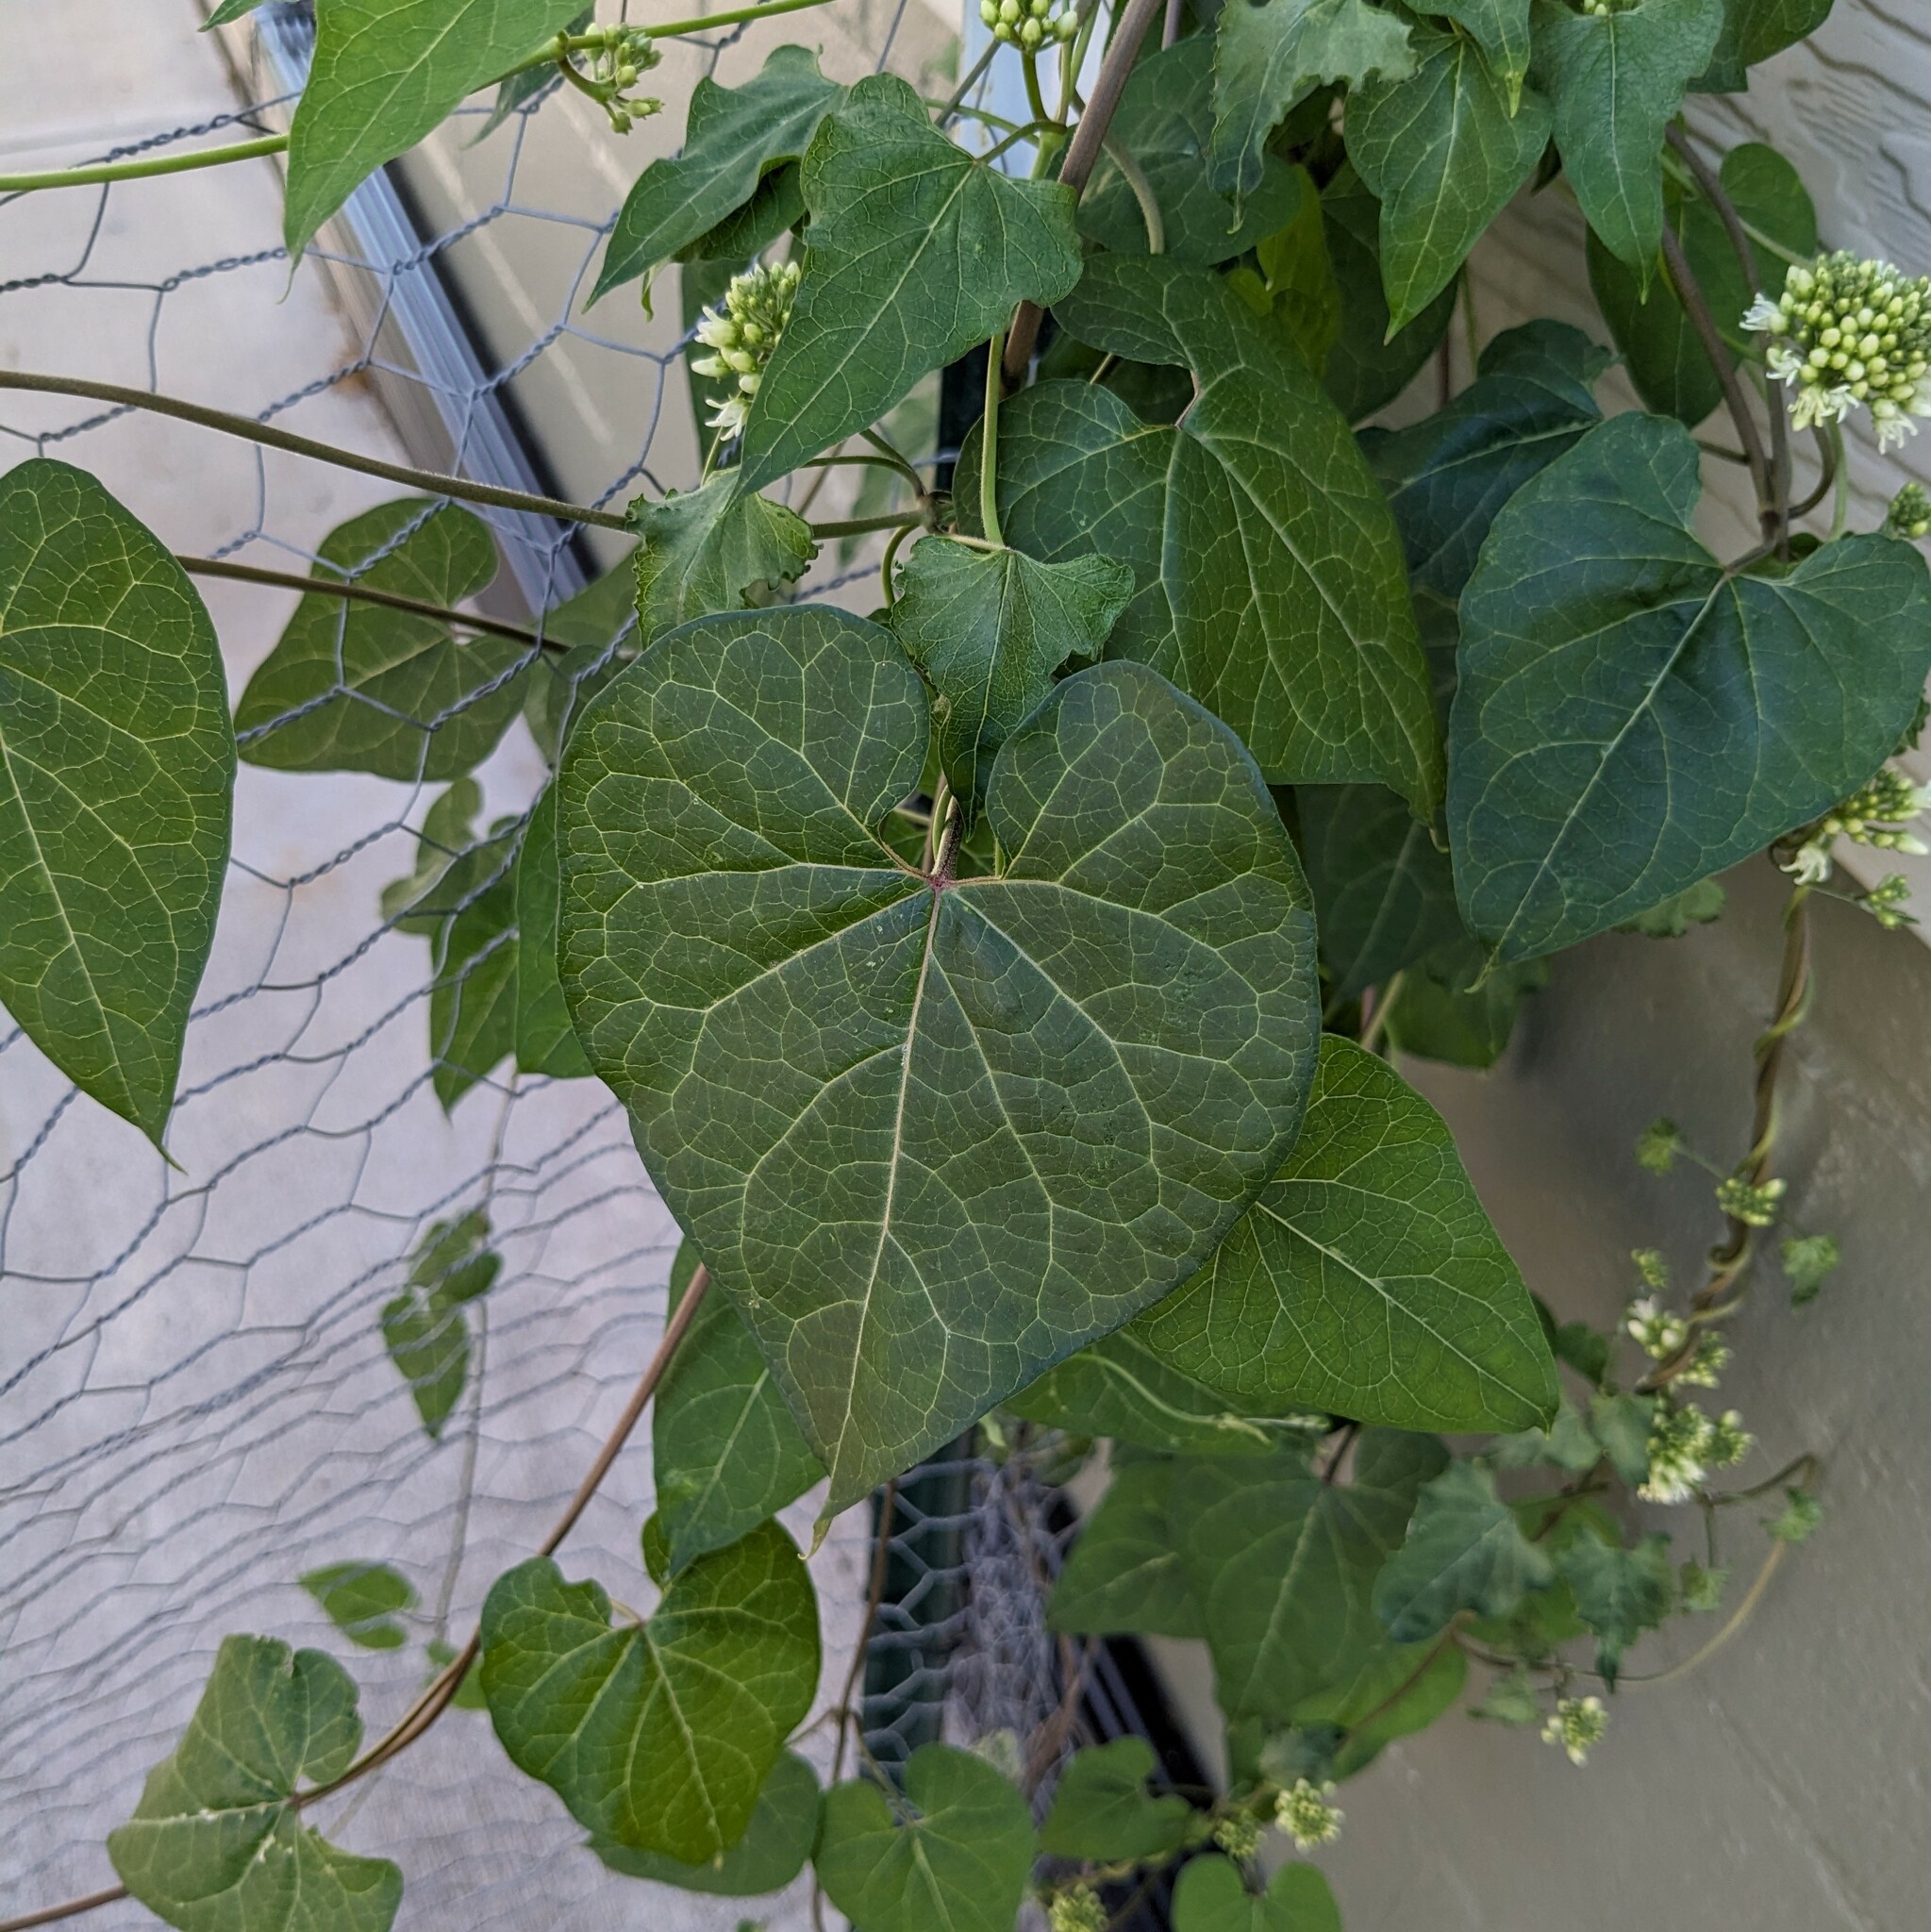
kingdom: Plantae
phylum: Tracheophyta
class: Magnoliopsida
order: Gentianales
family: Apocynaceae
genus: Cynanchum
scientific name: Cynanchum laeve
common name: Sandvine
